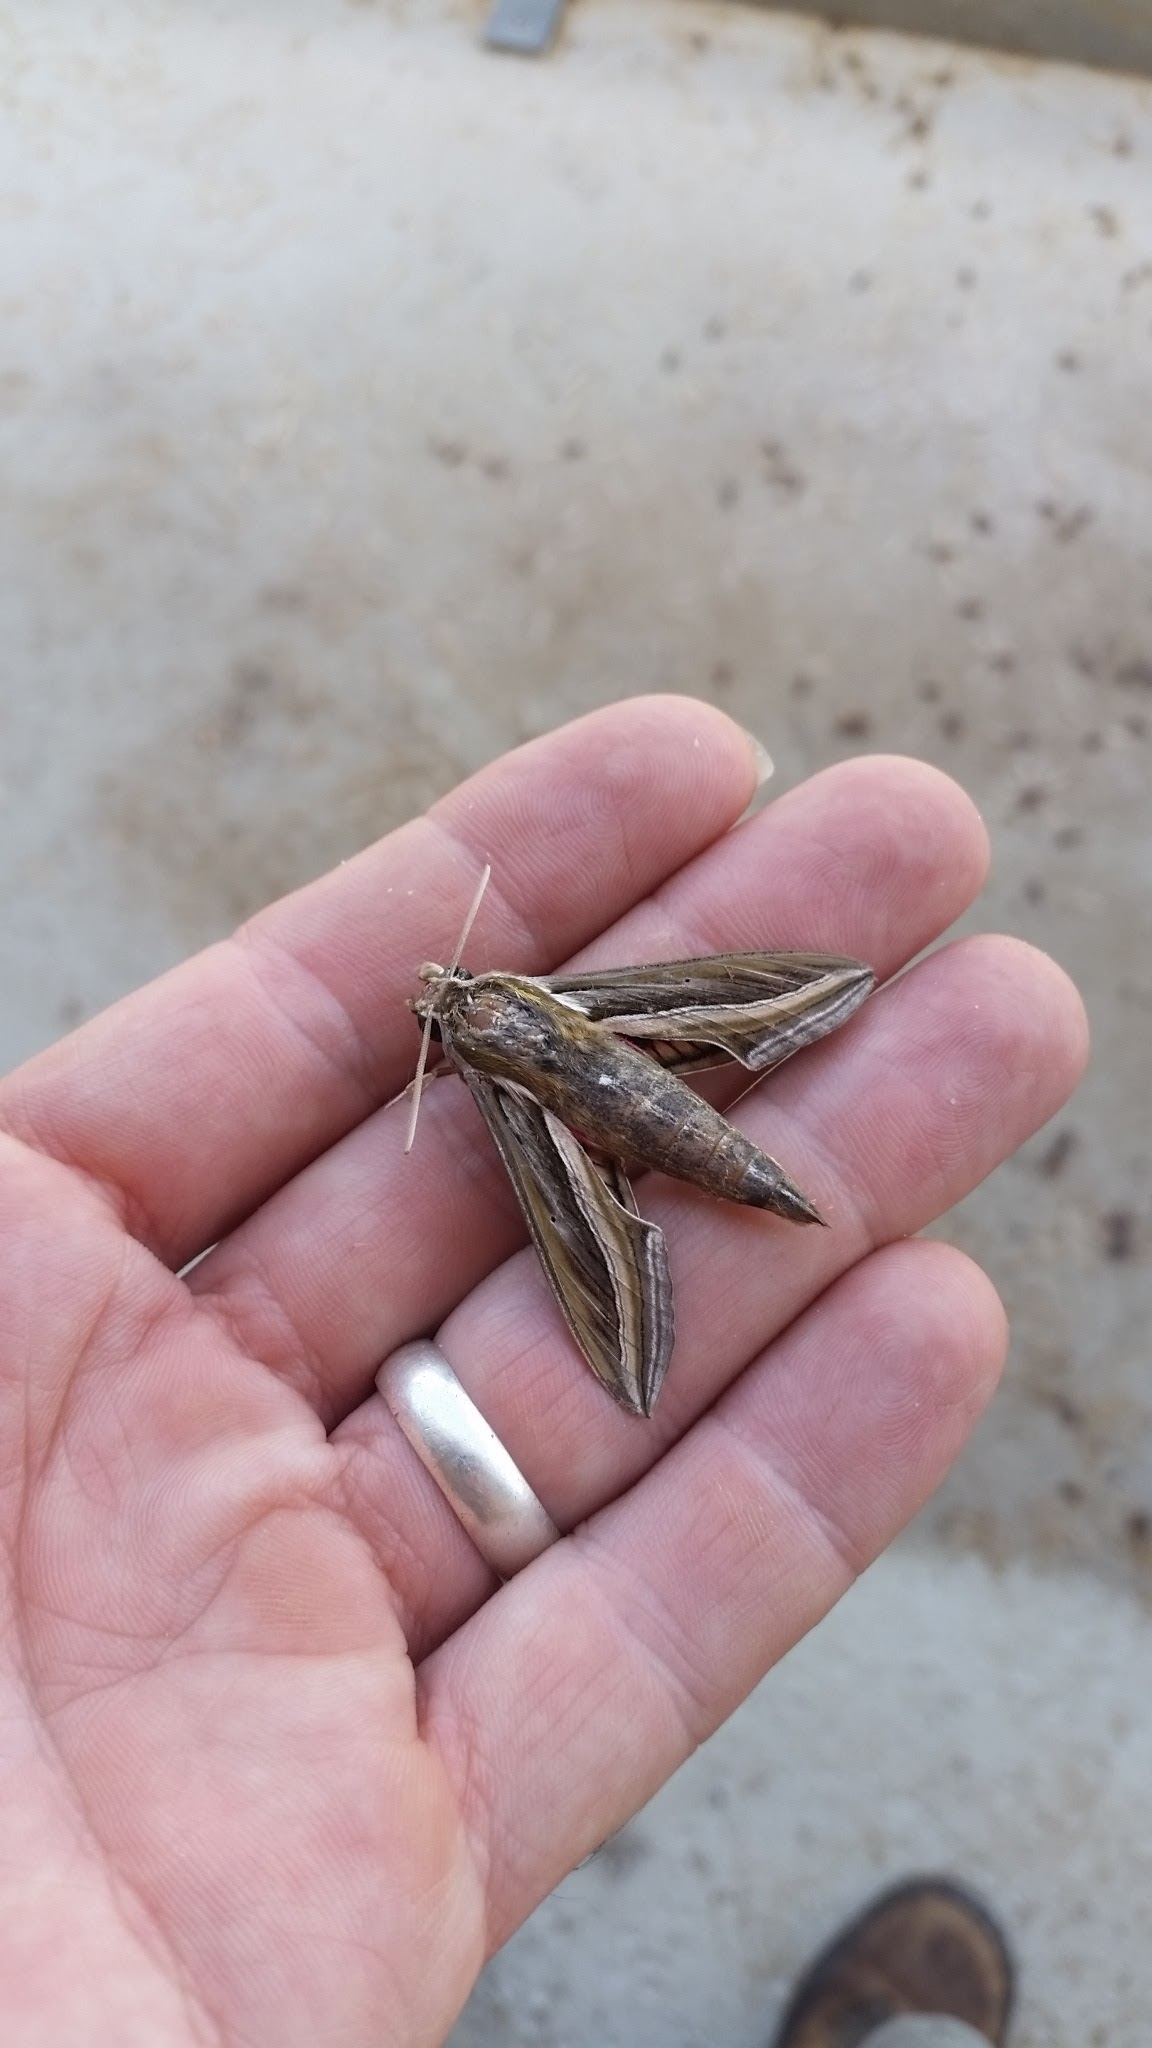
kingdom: Animalia
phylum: Arthropoda
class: Insecta
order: Lepidoptera
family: Sphingidae
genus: Hippotion
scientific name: Hippotion celerio
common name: Silver-striped hawk-moth
